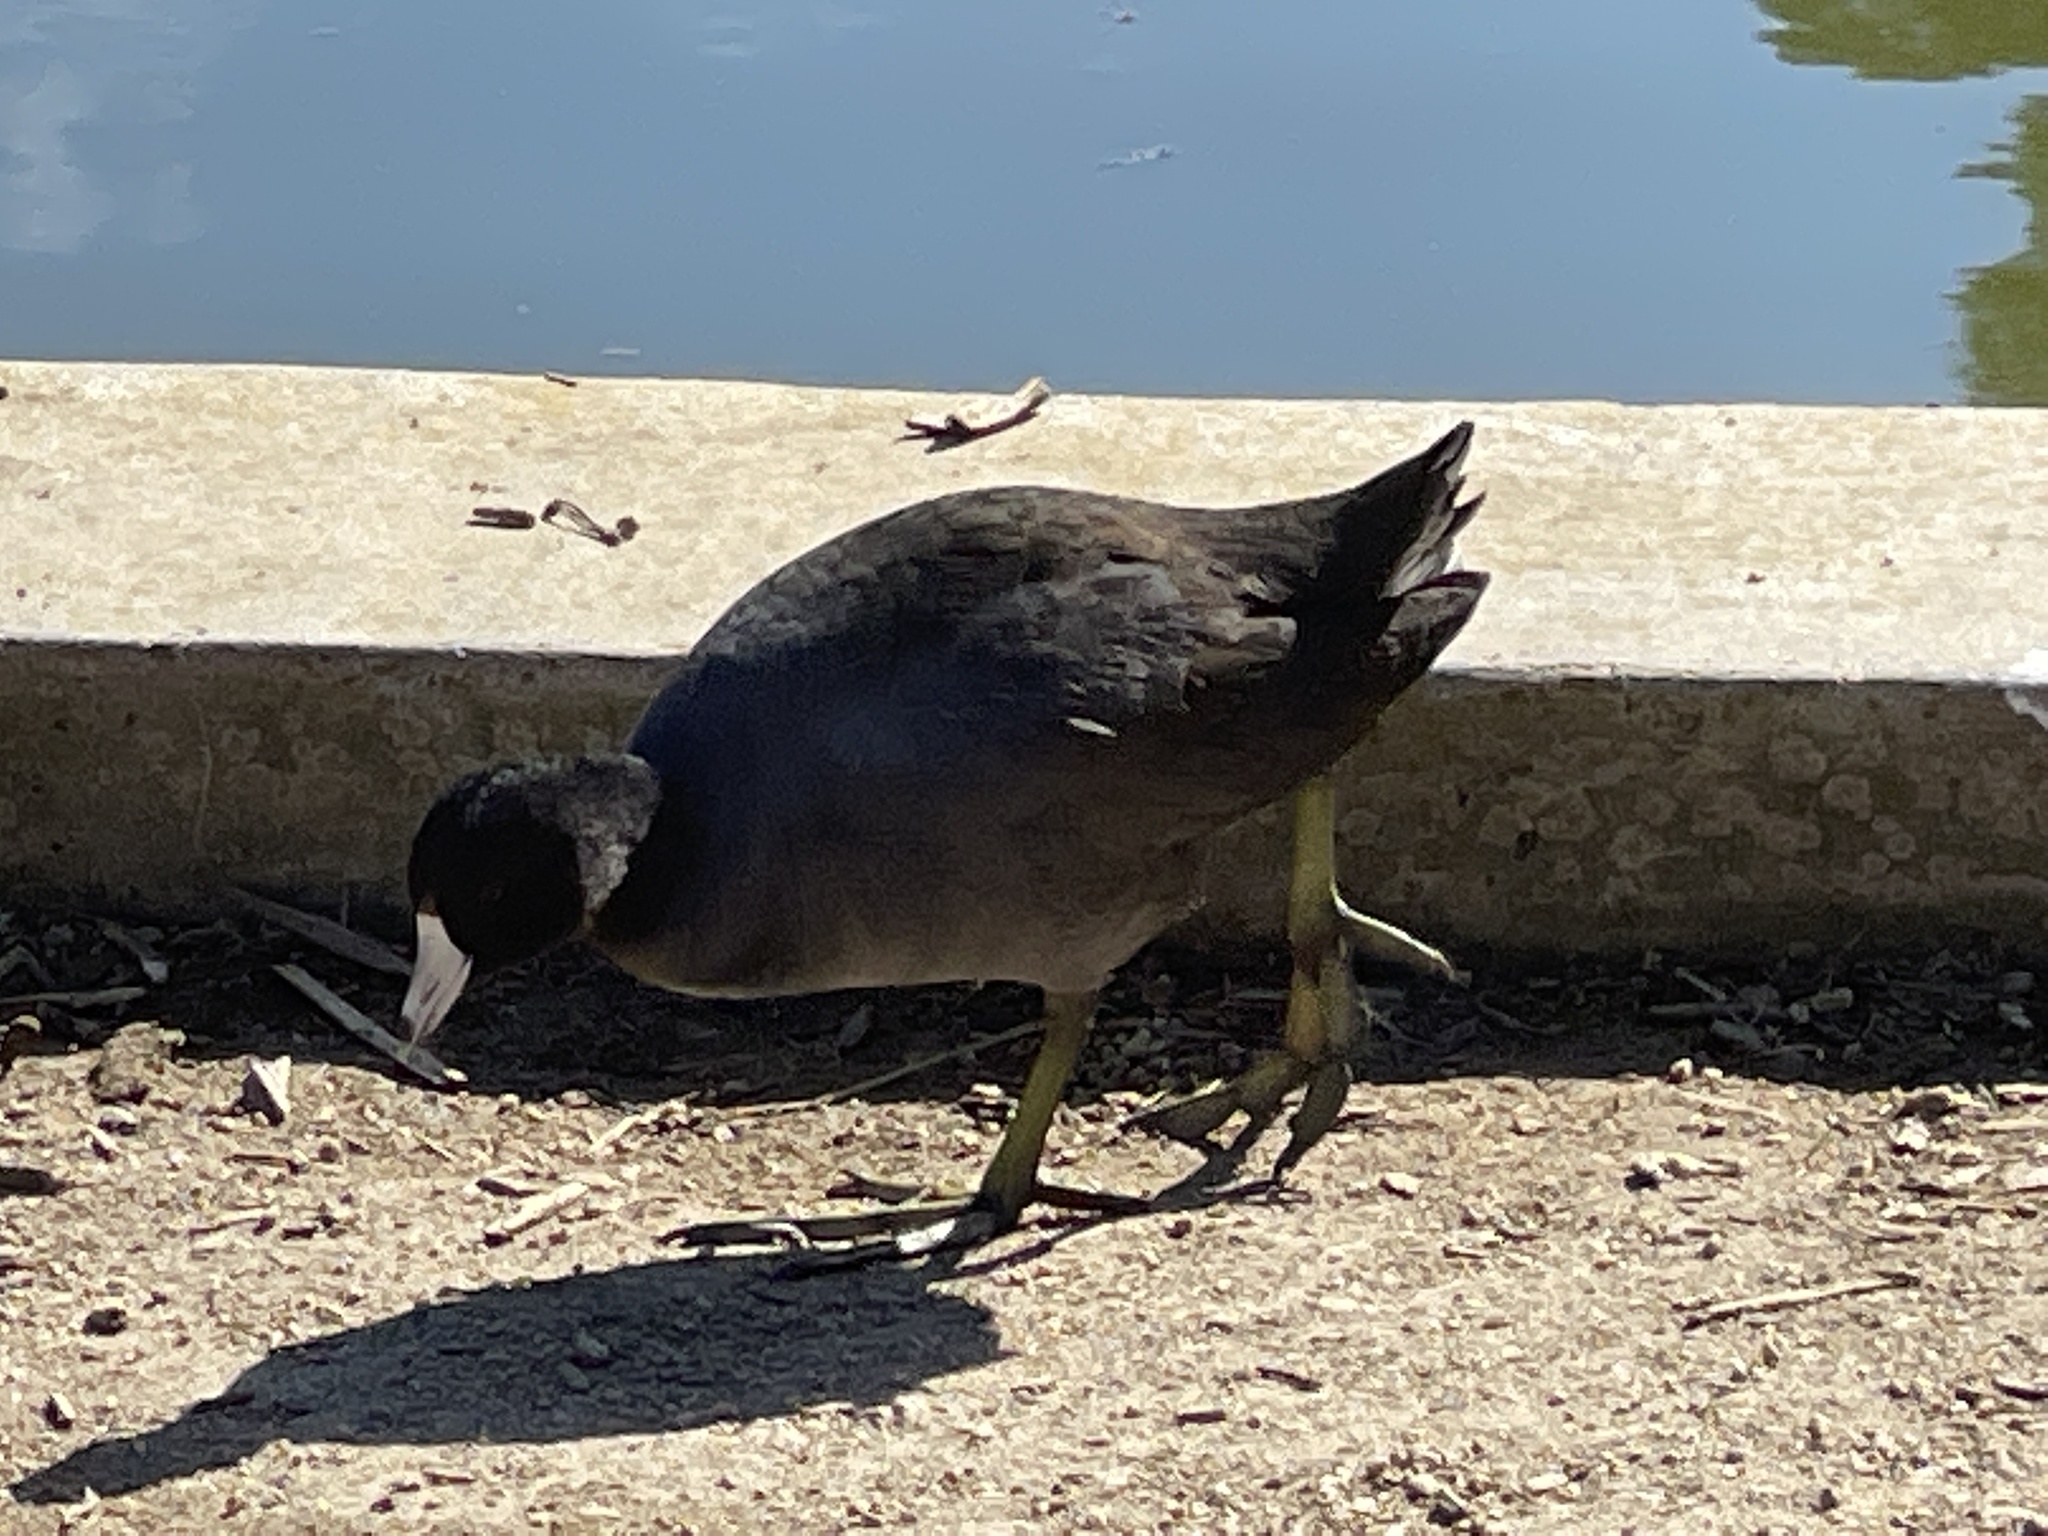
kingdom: Animalia
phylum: Chordata
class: Aves
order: Gruiformes
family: Rallidae
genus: Fulica
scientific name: Fulica americana
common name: American coot
